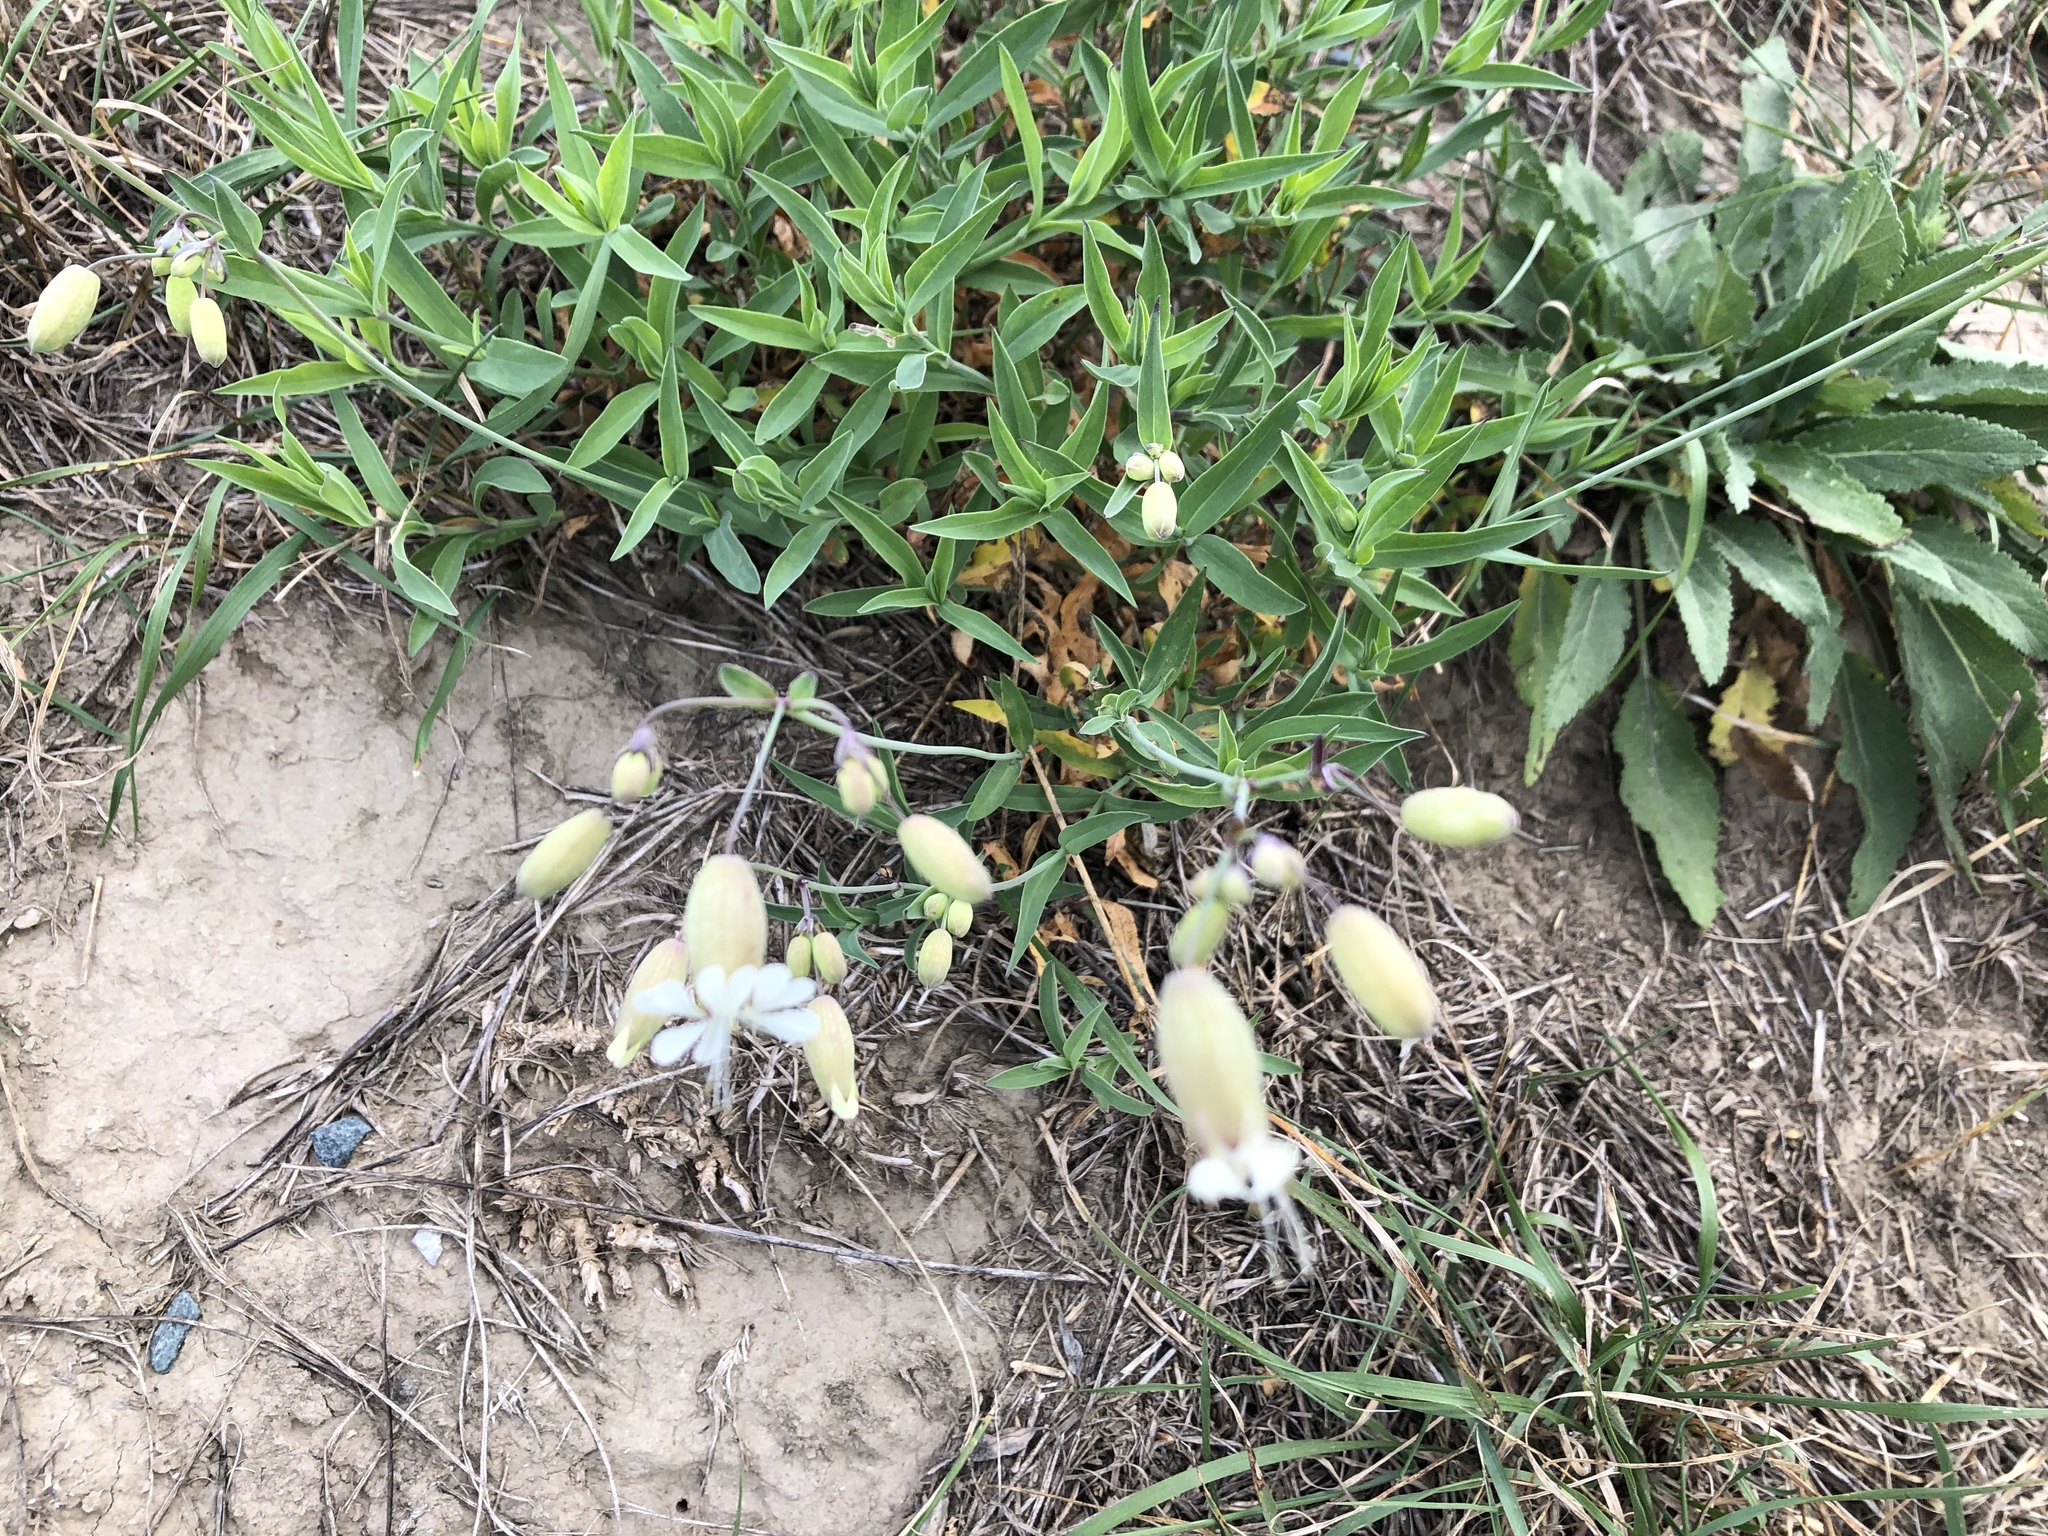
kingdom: Plantae
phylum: Tracheophyta
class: Magnoliopsida
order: Caryophyllales
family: Caryophyllaceae
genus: Silene
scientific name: Silene vulgaris
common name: Bladder campion
